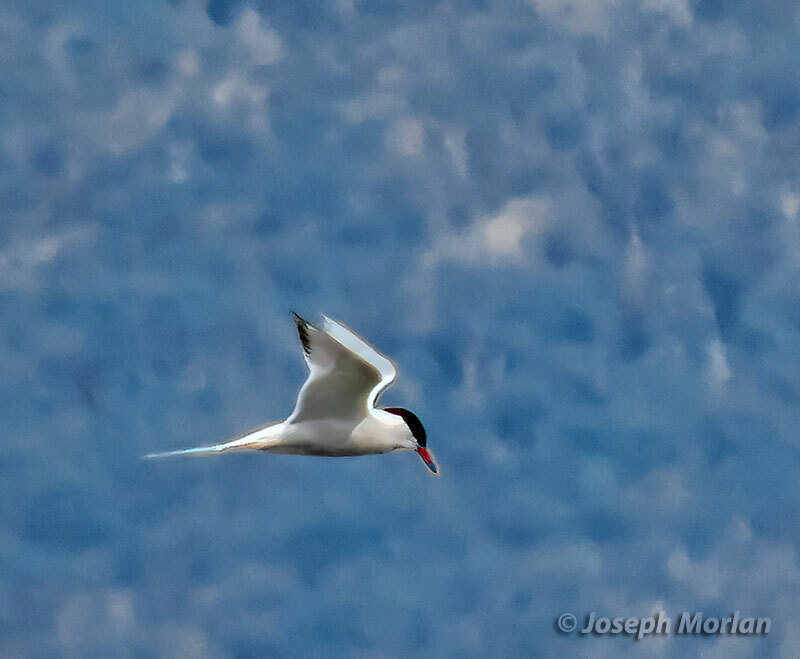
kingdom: Animalia
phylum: Chordata
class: Aves
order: Charadriiformes
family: Laridae
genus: Sterna
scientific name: Sterna hirundinacea
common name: South american tern
